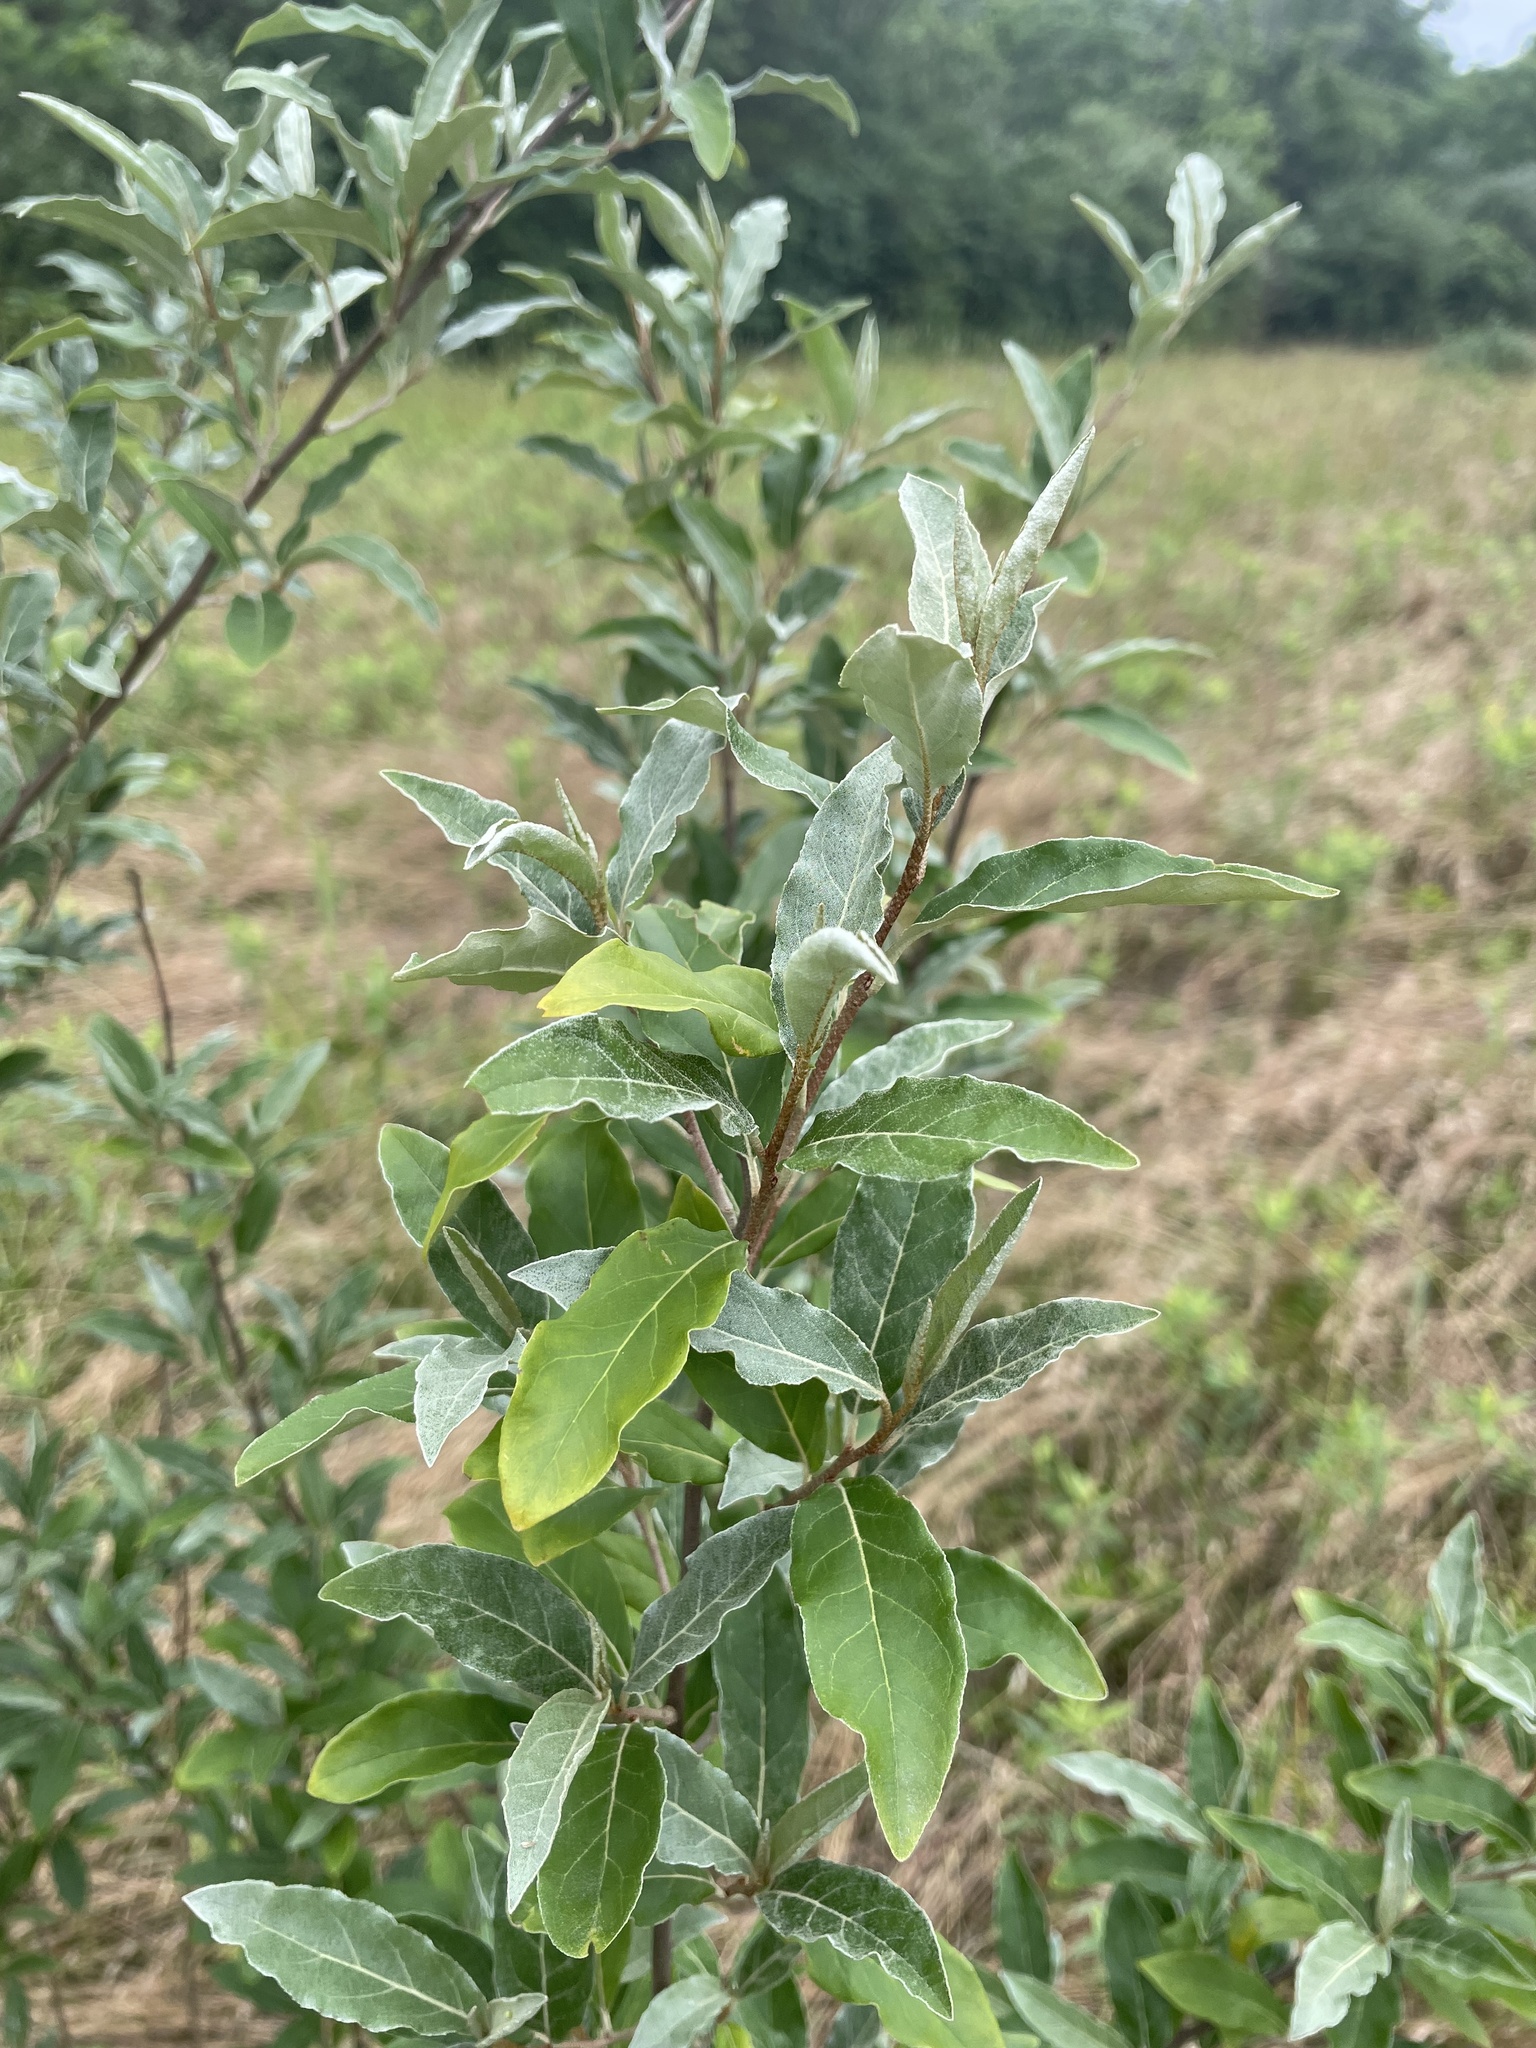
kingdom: Plantae
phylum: Tracheophyta
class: Magnoliopsida
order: Rosales
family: Elaeagnaceae
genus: Elaeagnus
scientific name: Elaeagnus umbellata
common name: Autumn olive
